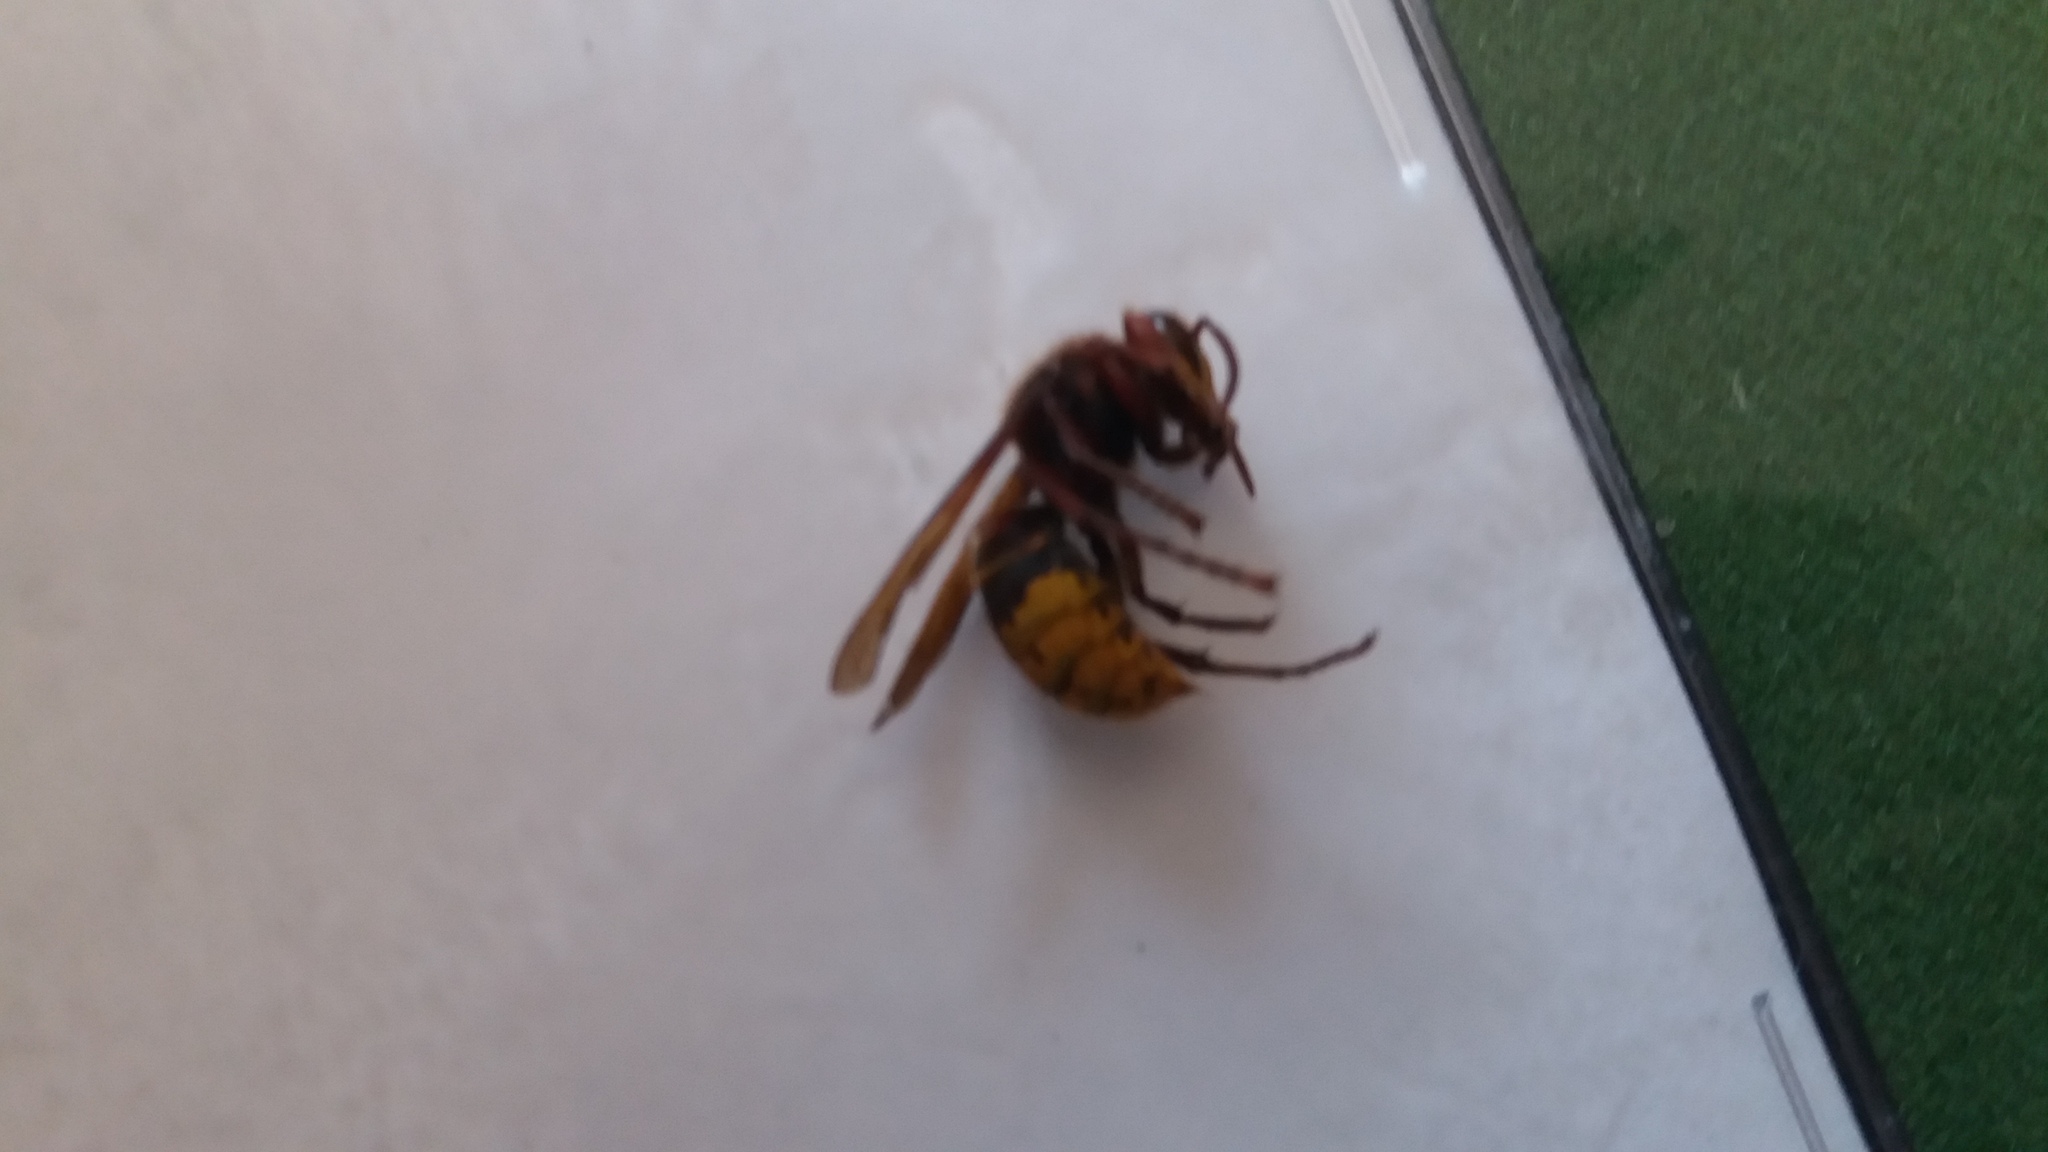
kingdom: Animalia
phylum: Arthropoda
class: Insecta
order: Hymenoptera
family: Vespidae
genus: Vespa
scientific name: Vespa crabro
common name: Hornet
